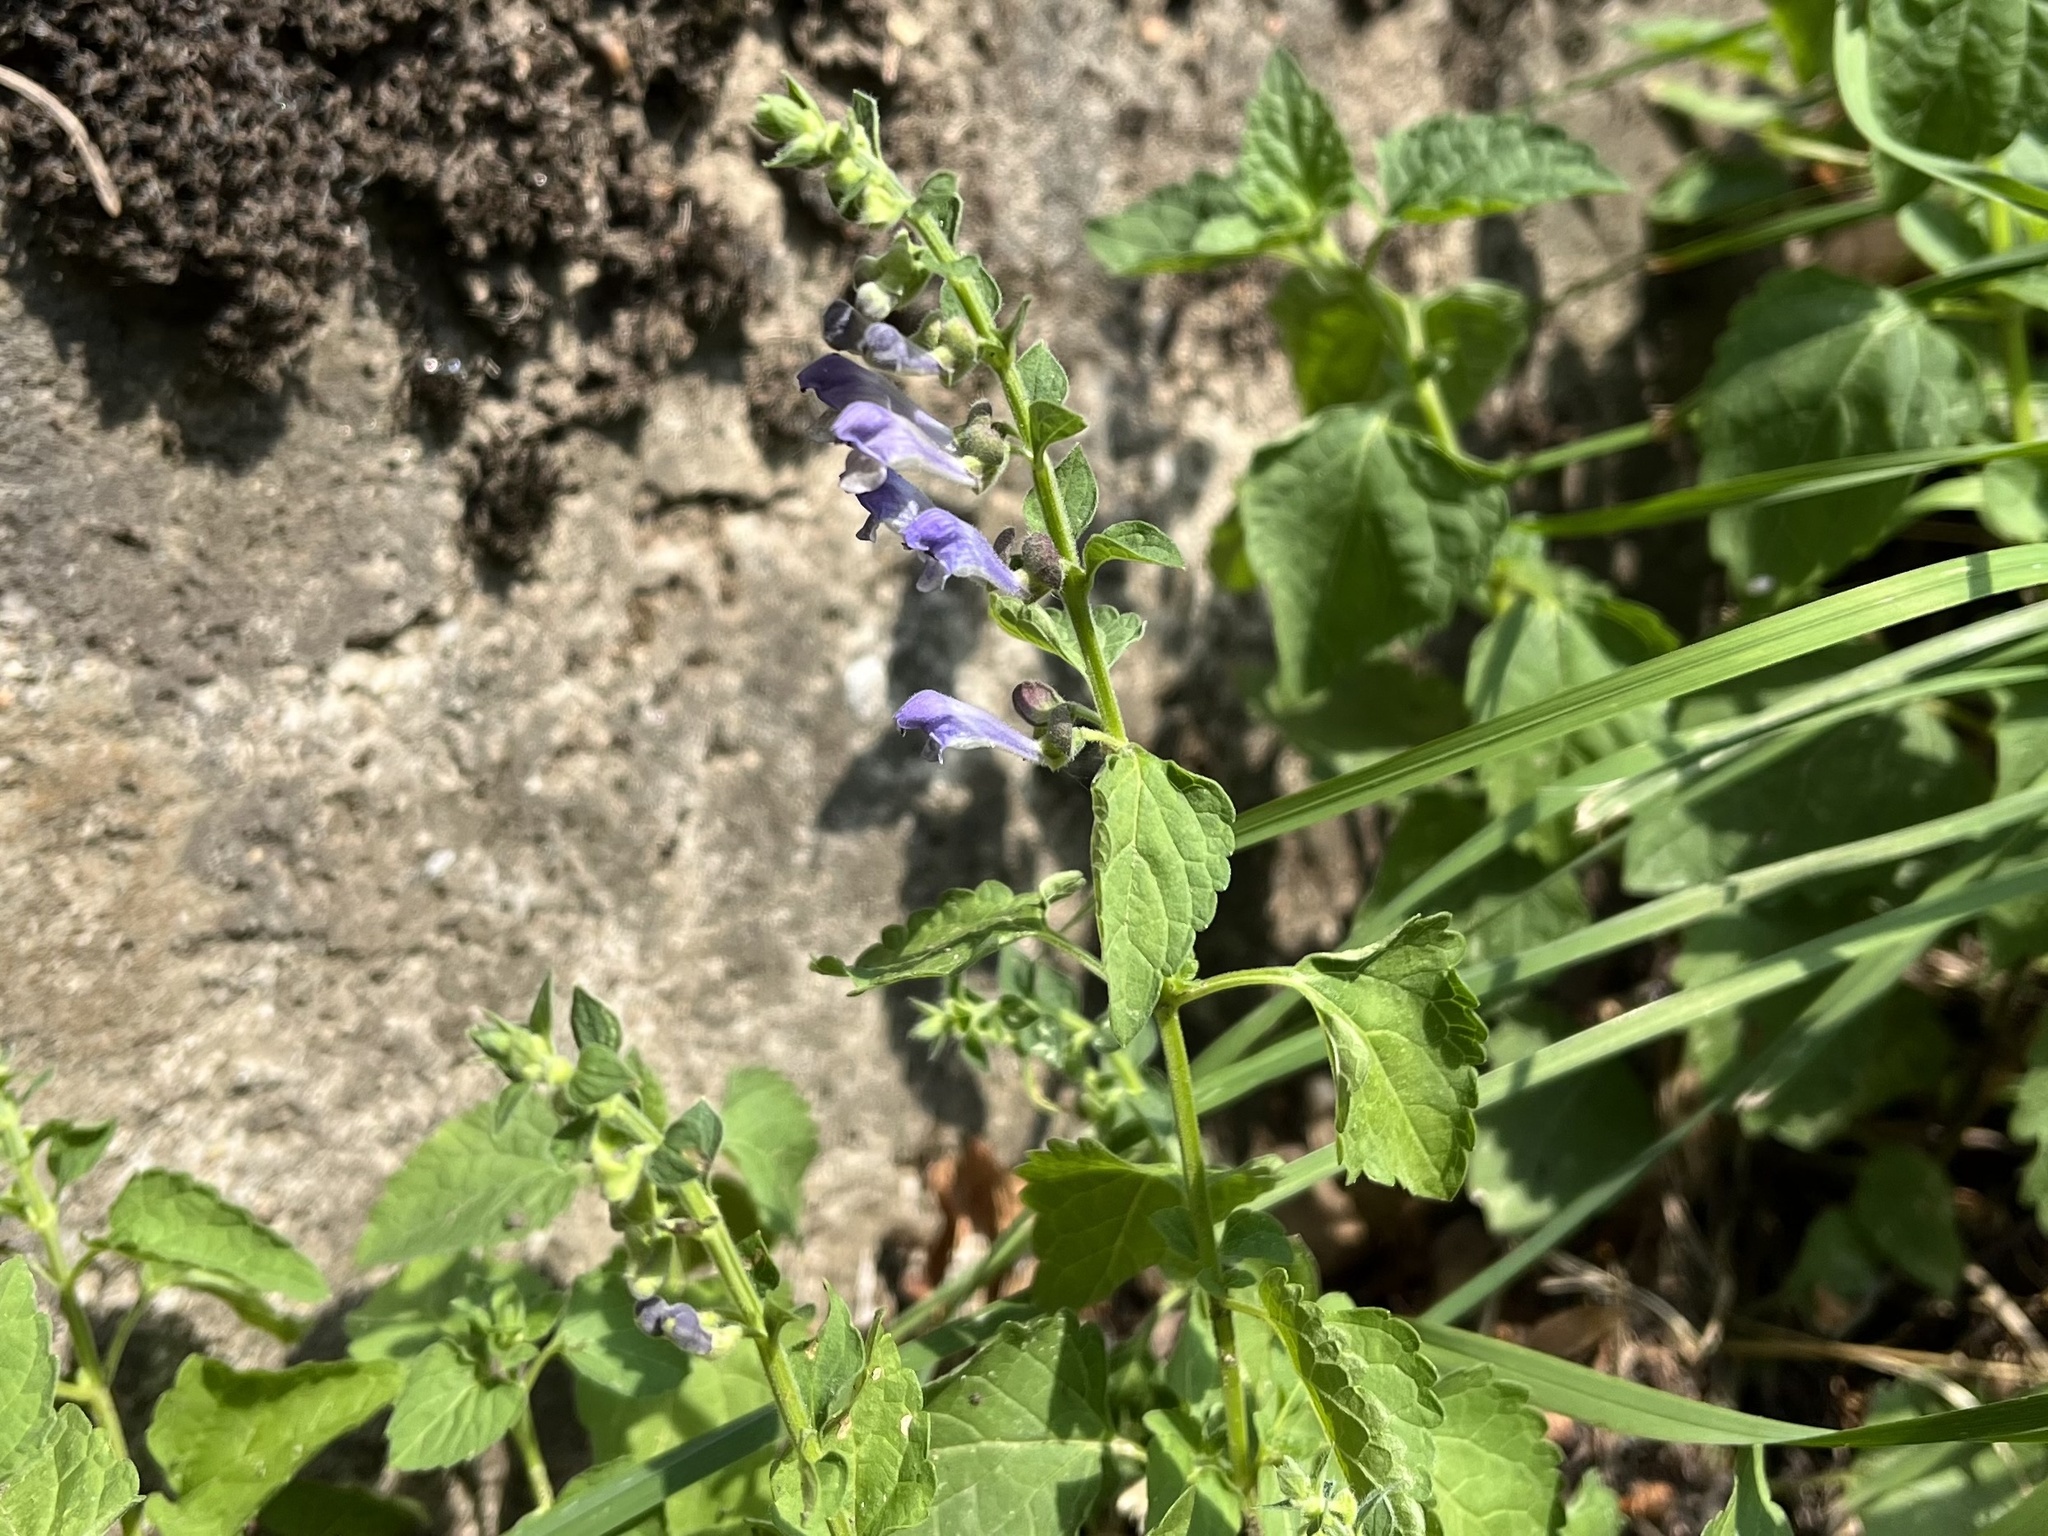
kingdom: Plantae
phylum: Tracheophyta
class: Magnoliopsida
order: Lamiales
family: Lamiaceae
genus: Scutellaria
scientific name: Scutellaria altissima
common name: Somerset skullcap
